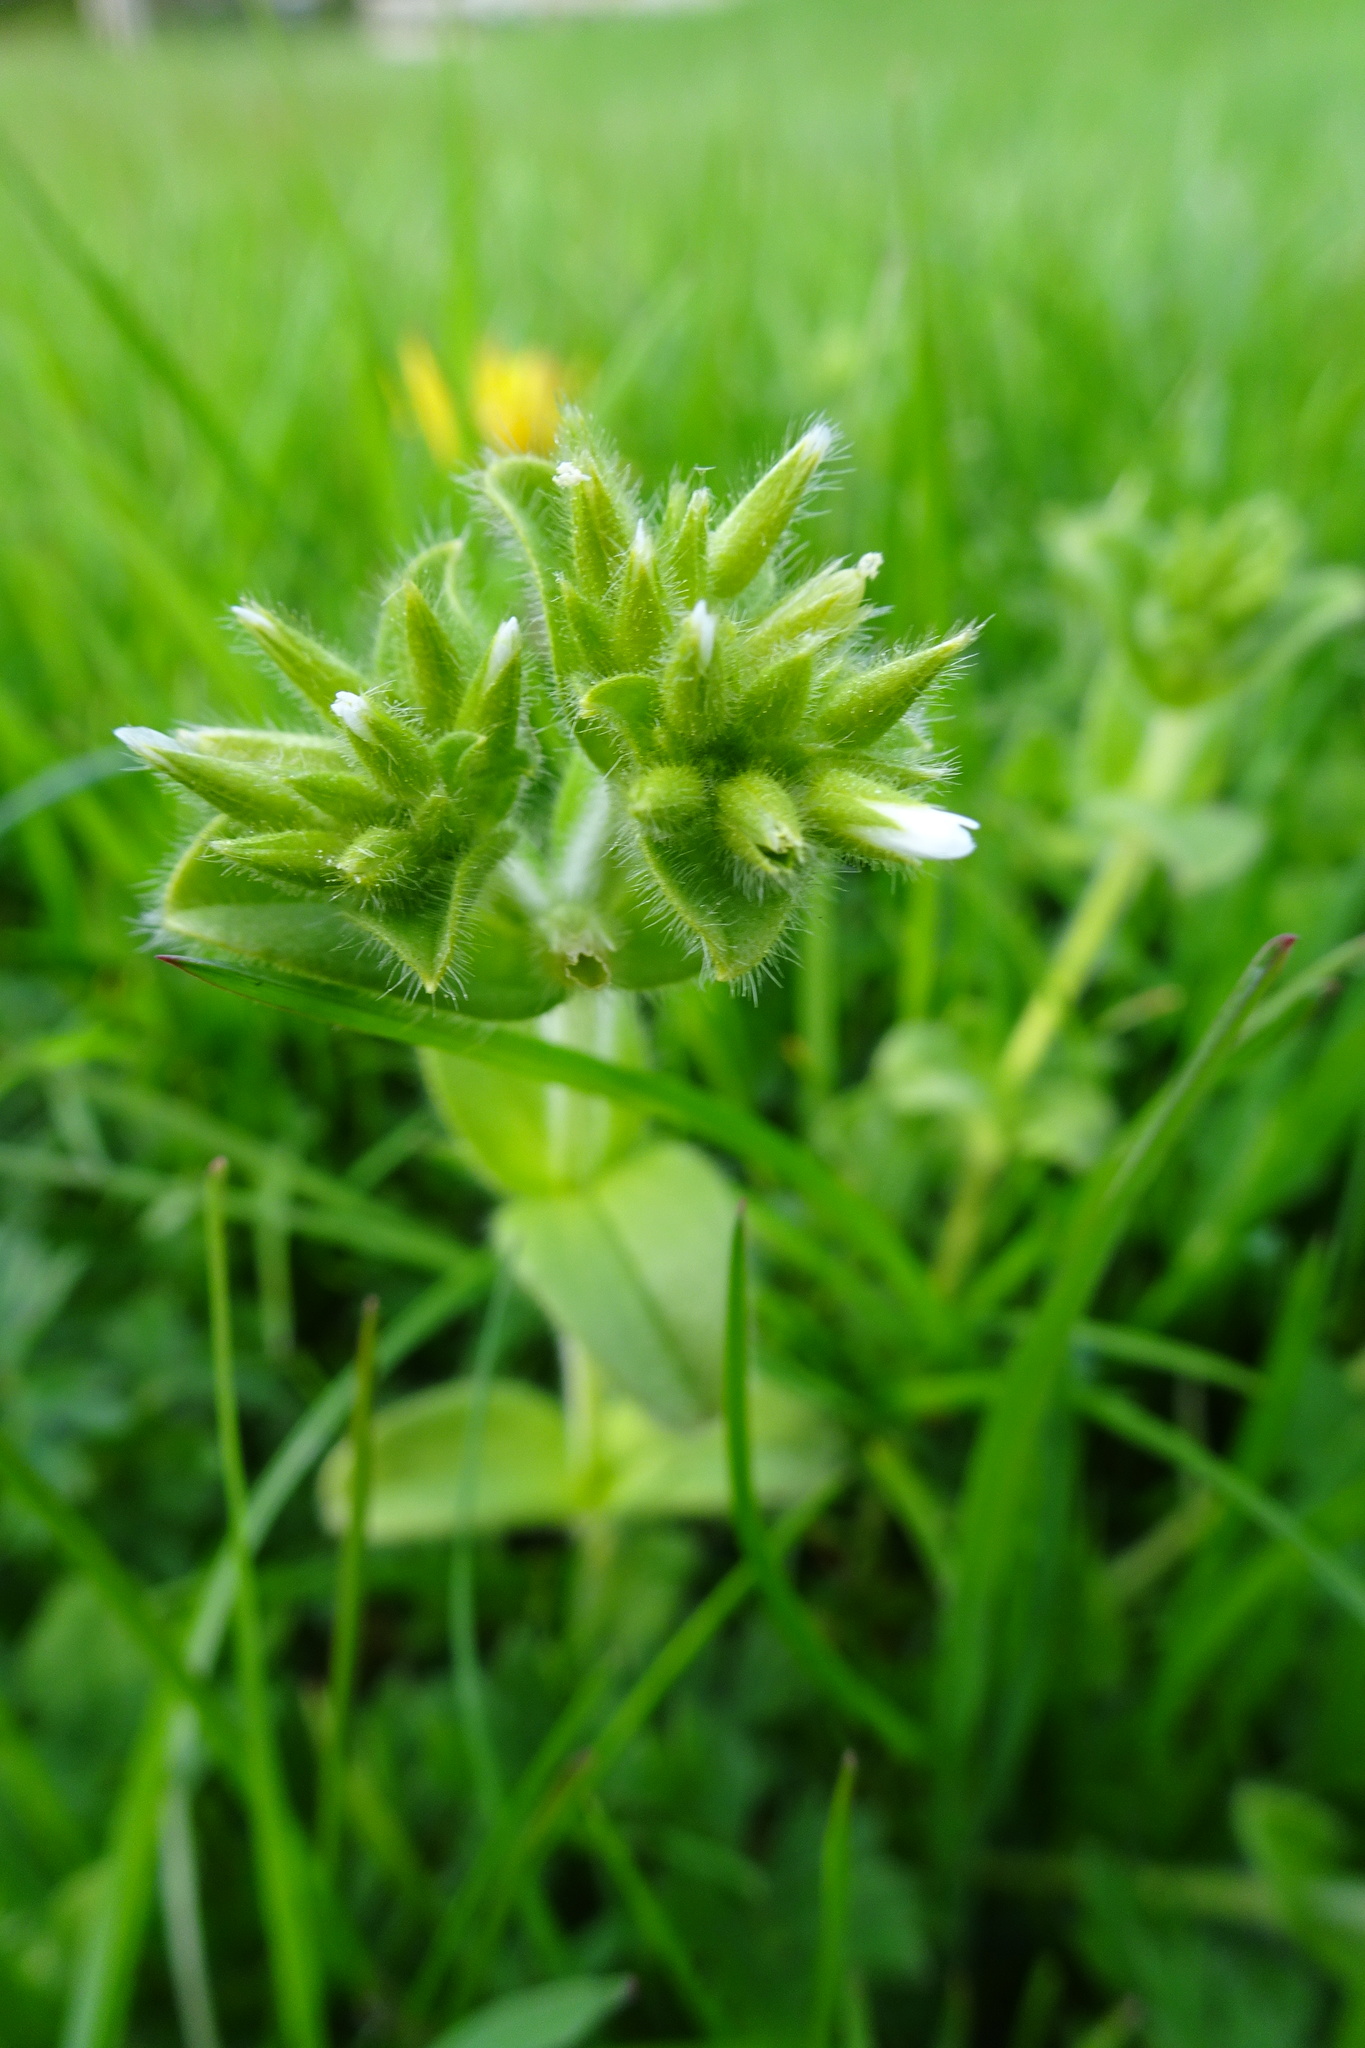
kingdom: Plantae
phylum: Tracheophyta
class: Magnoliopsida
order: Caryophyllales
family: Caryophyllaceae
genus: Cerastium
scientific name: Cerastium glomeratum
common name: Sticky chickweed
